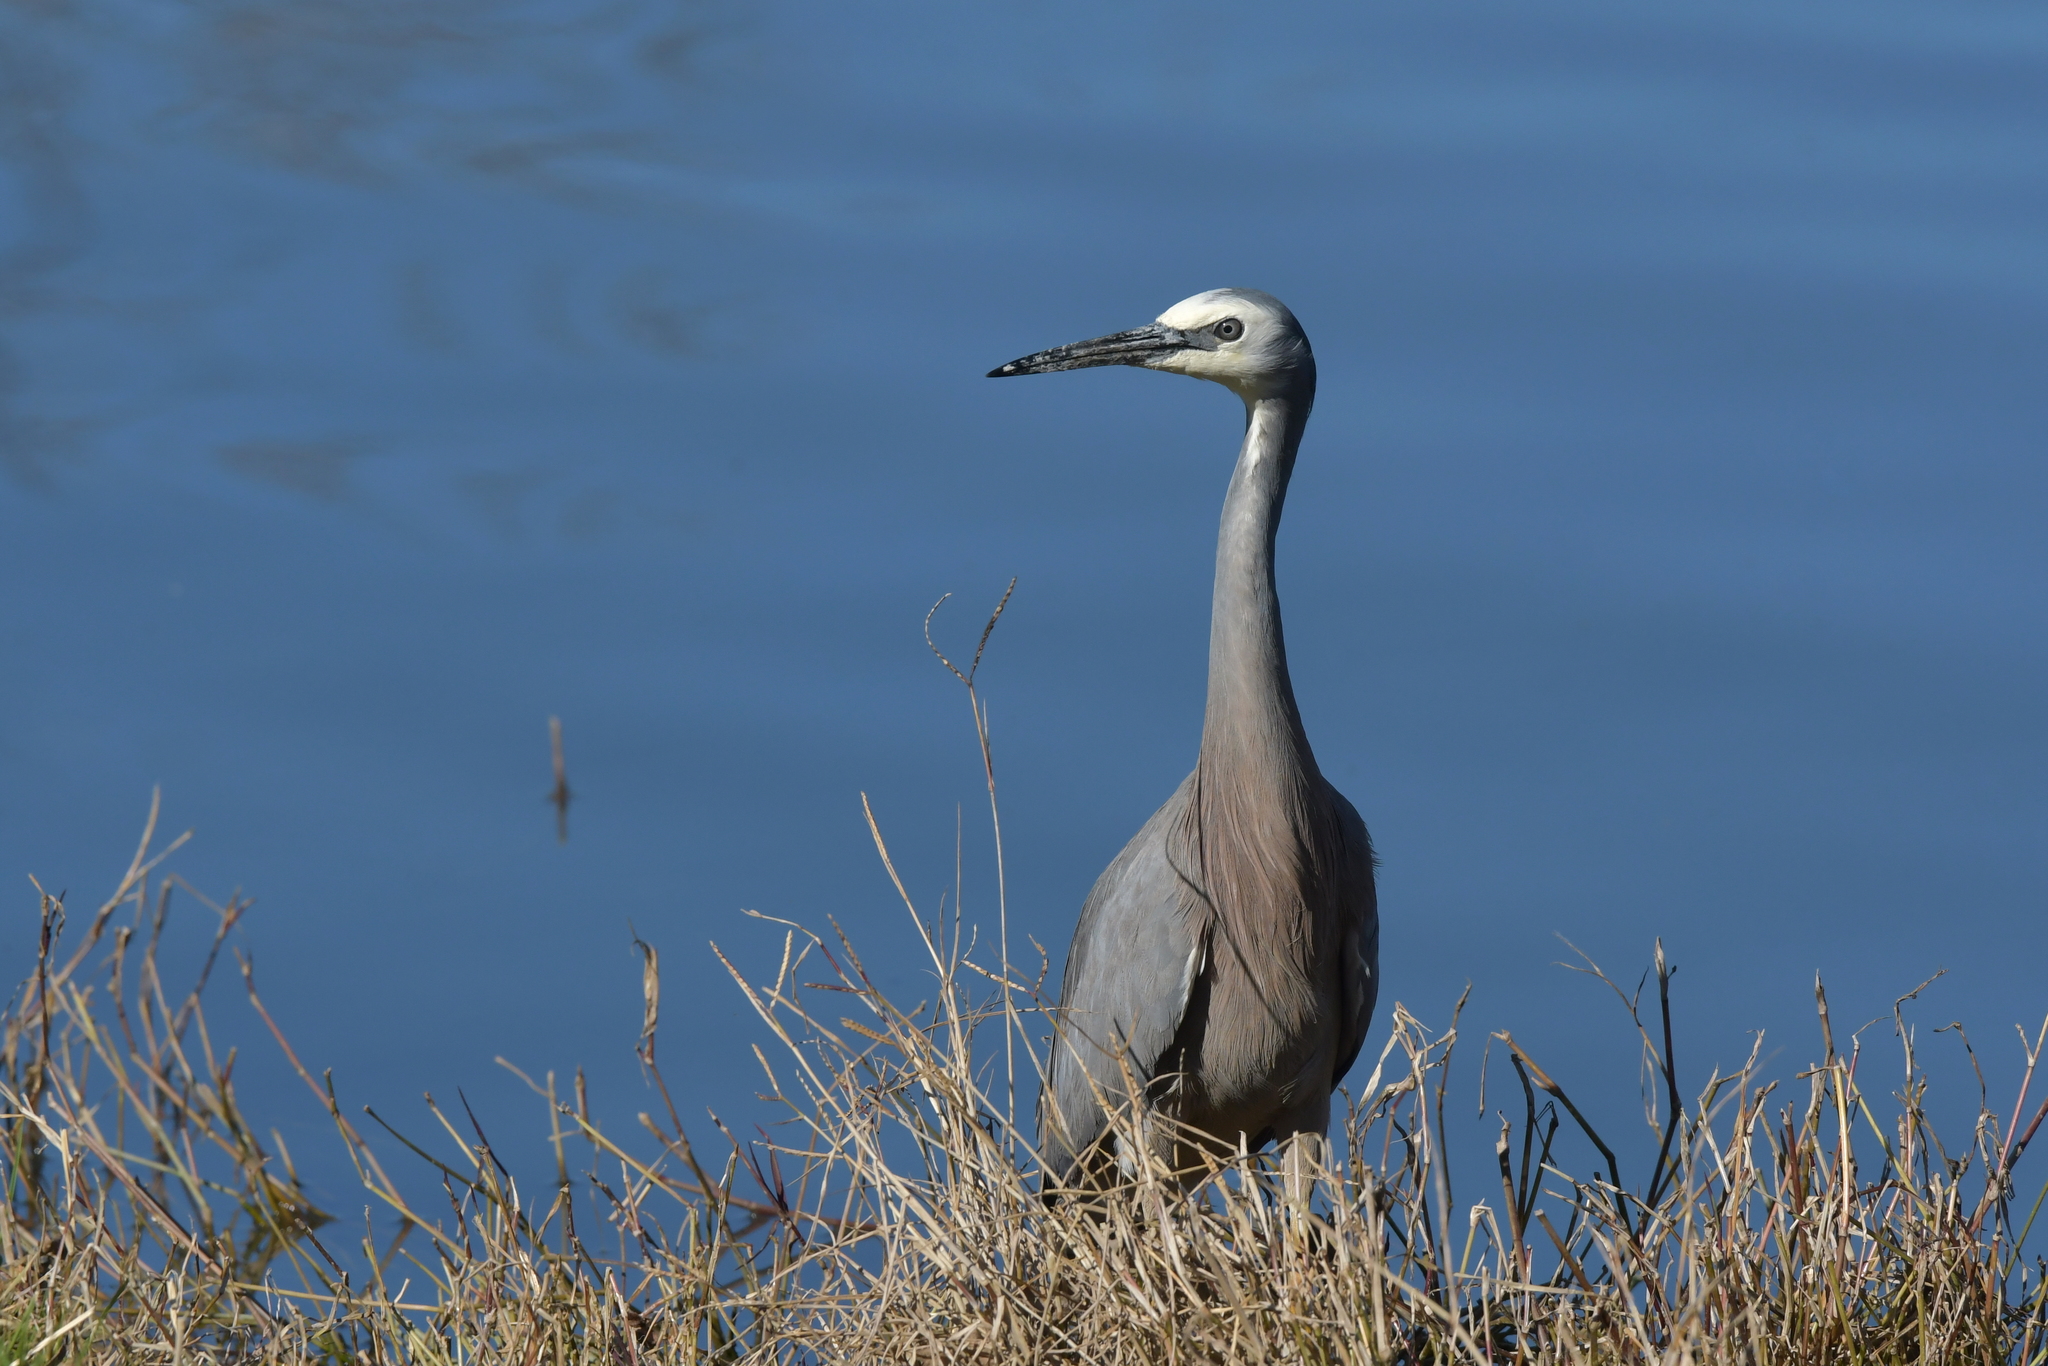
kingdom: Animalia
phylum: Chordata
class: Aves
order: Pelecaniformes
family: Ardeidae
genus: Egretta
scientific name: Egretta novaehollandiae
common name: White-faced heron
